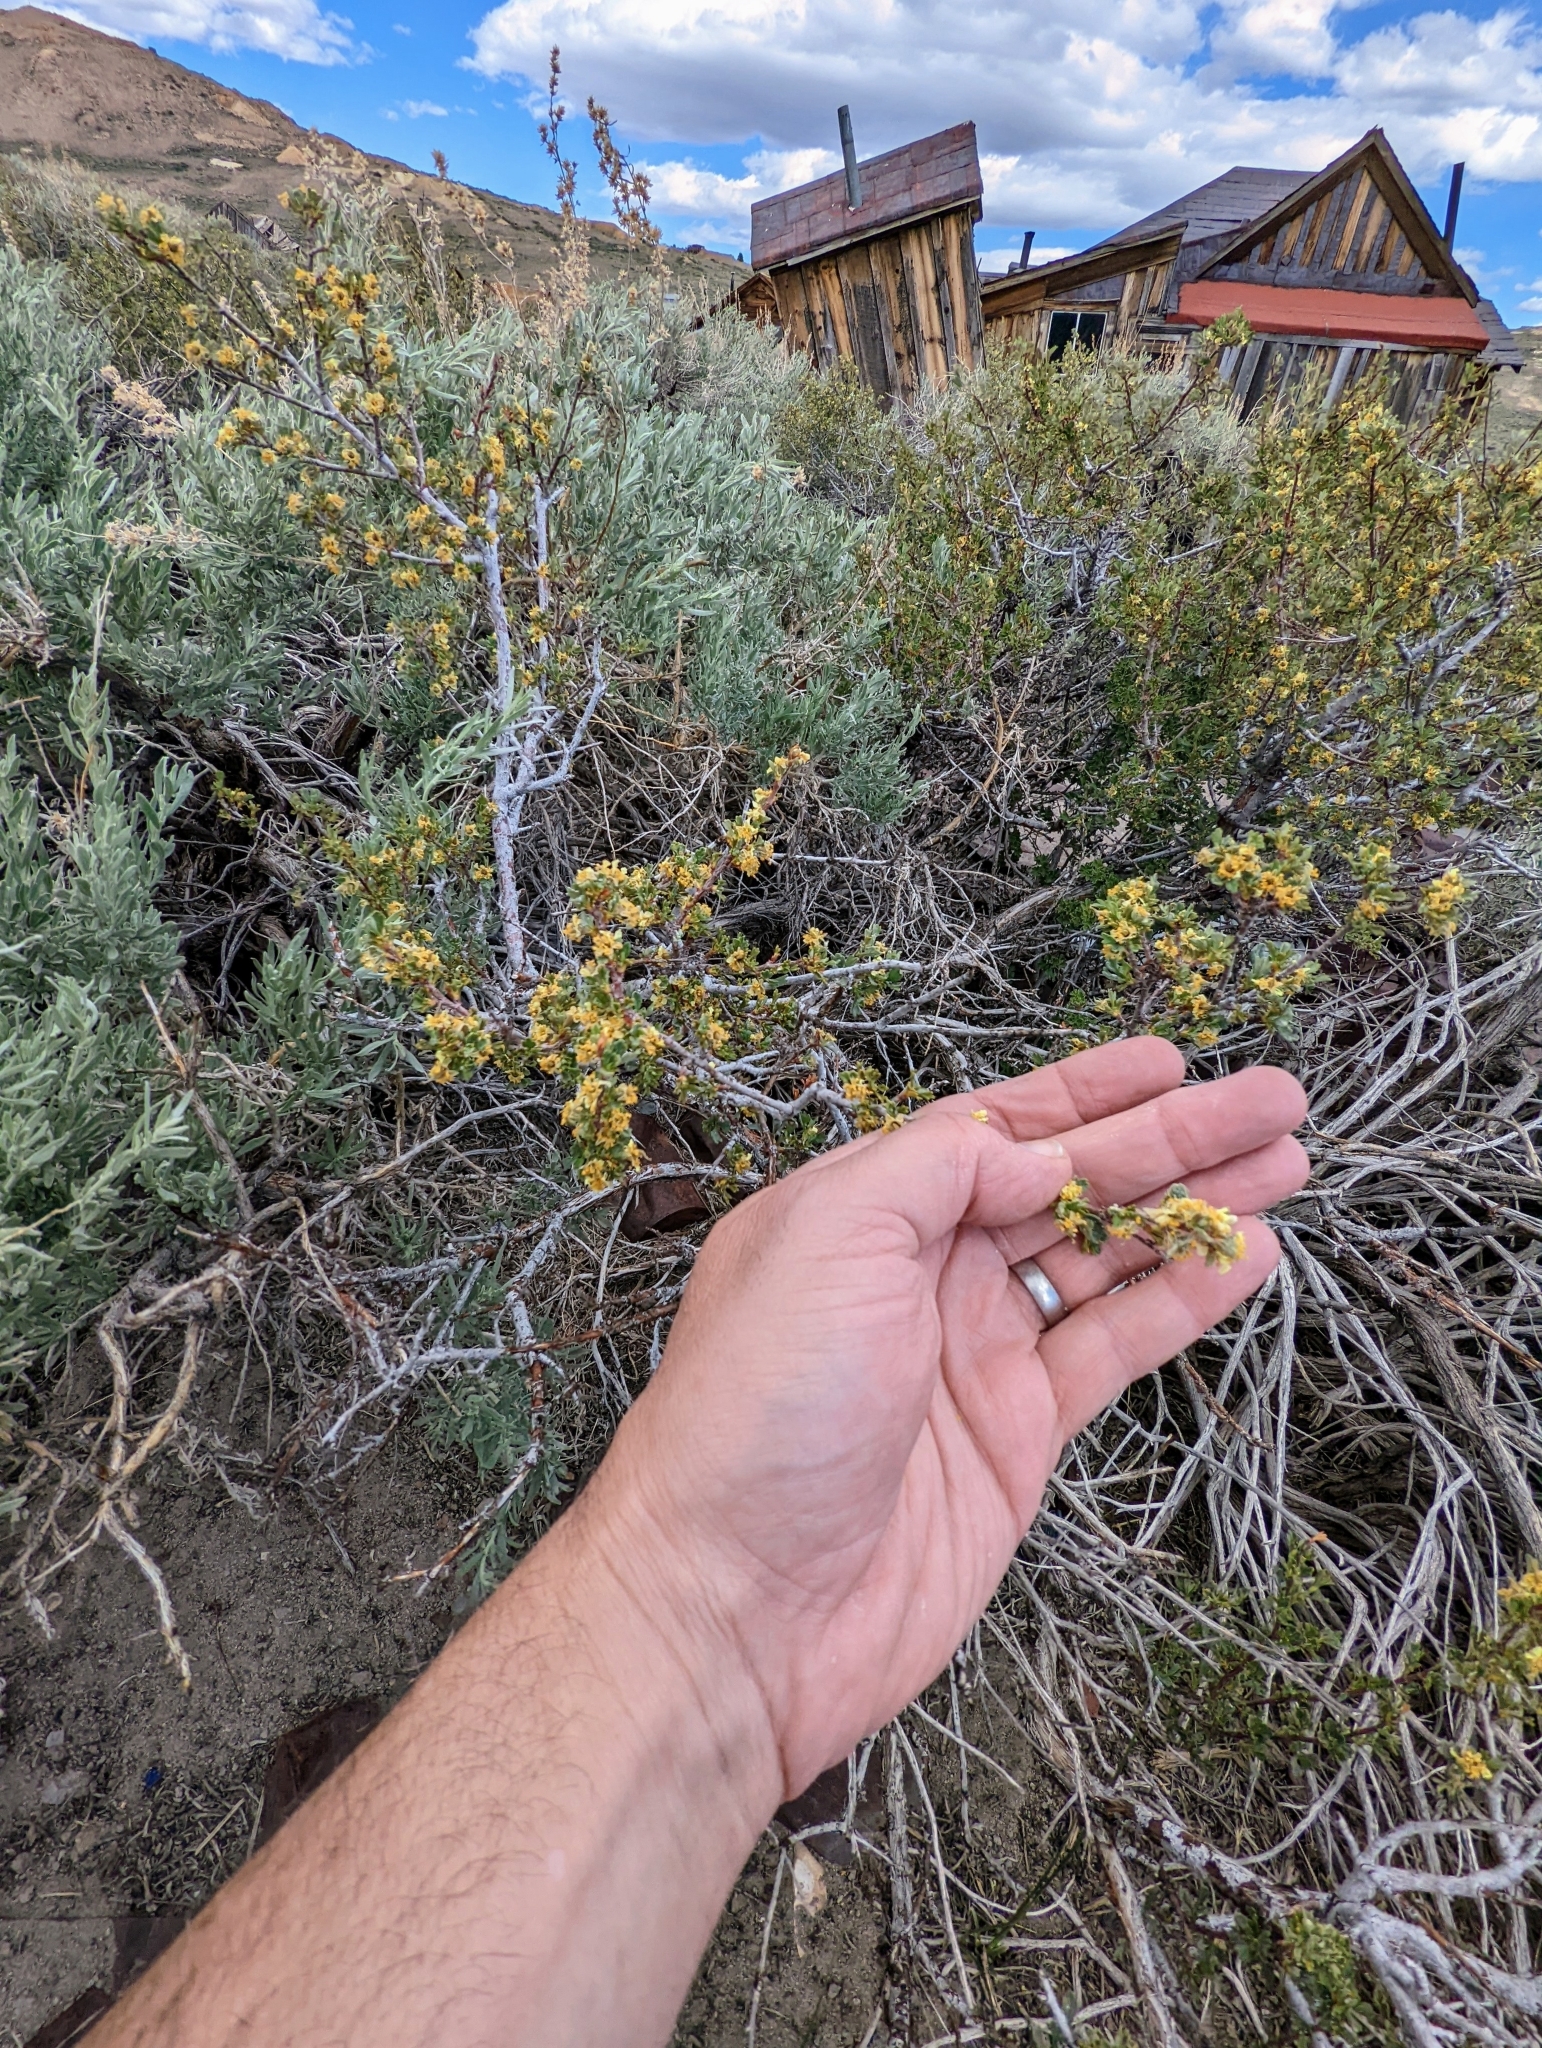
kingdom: Plantae
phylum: Tracheophyta
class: Magnoliopsida
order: Rosales
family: Rosaceae
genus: Purshia
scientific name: Purshia tridentata
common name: Antelope bitterbrush
